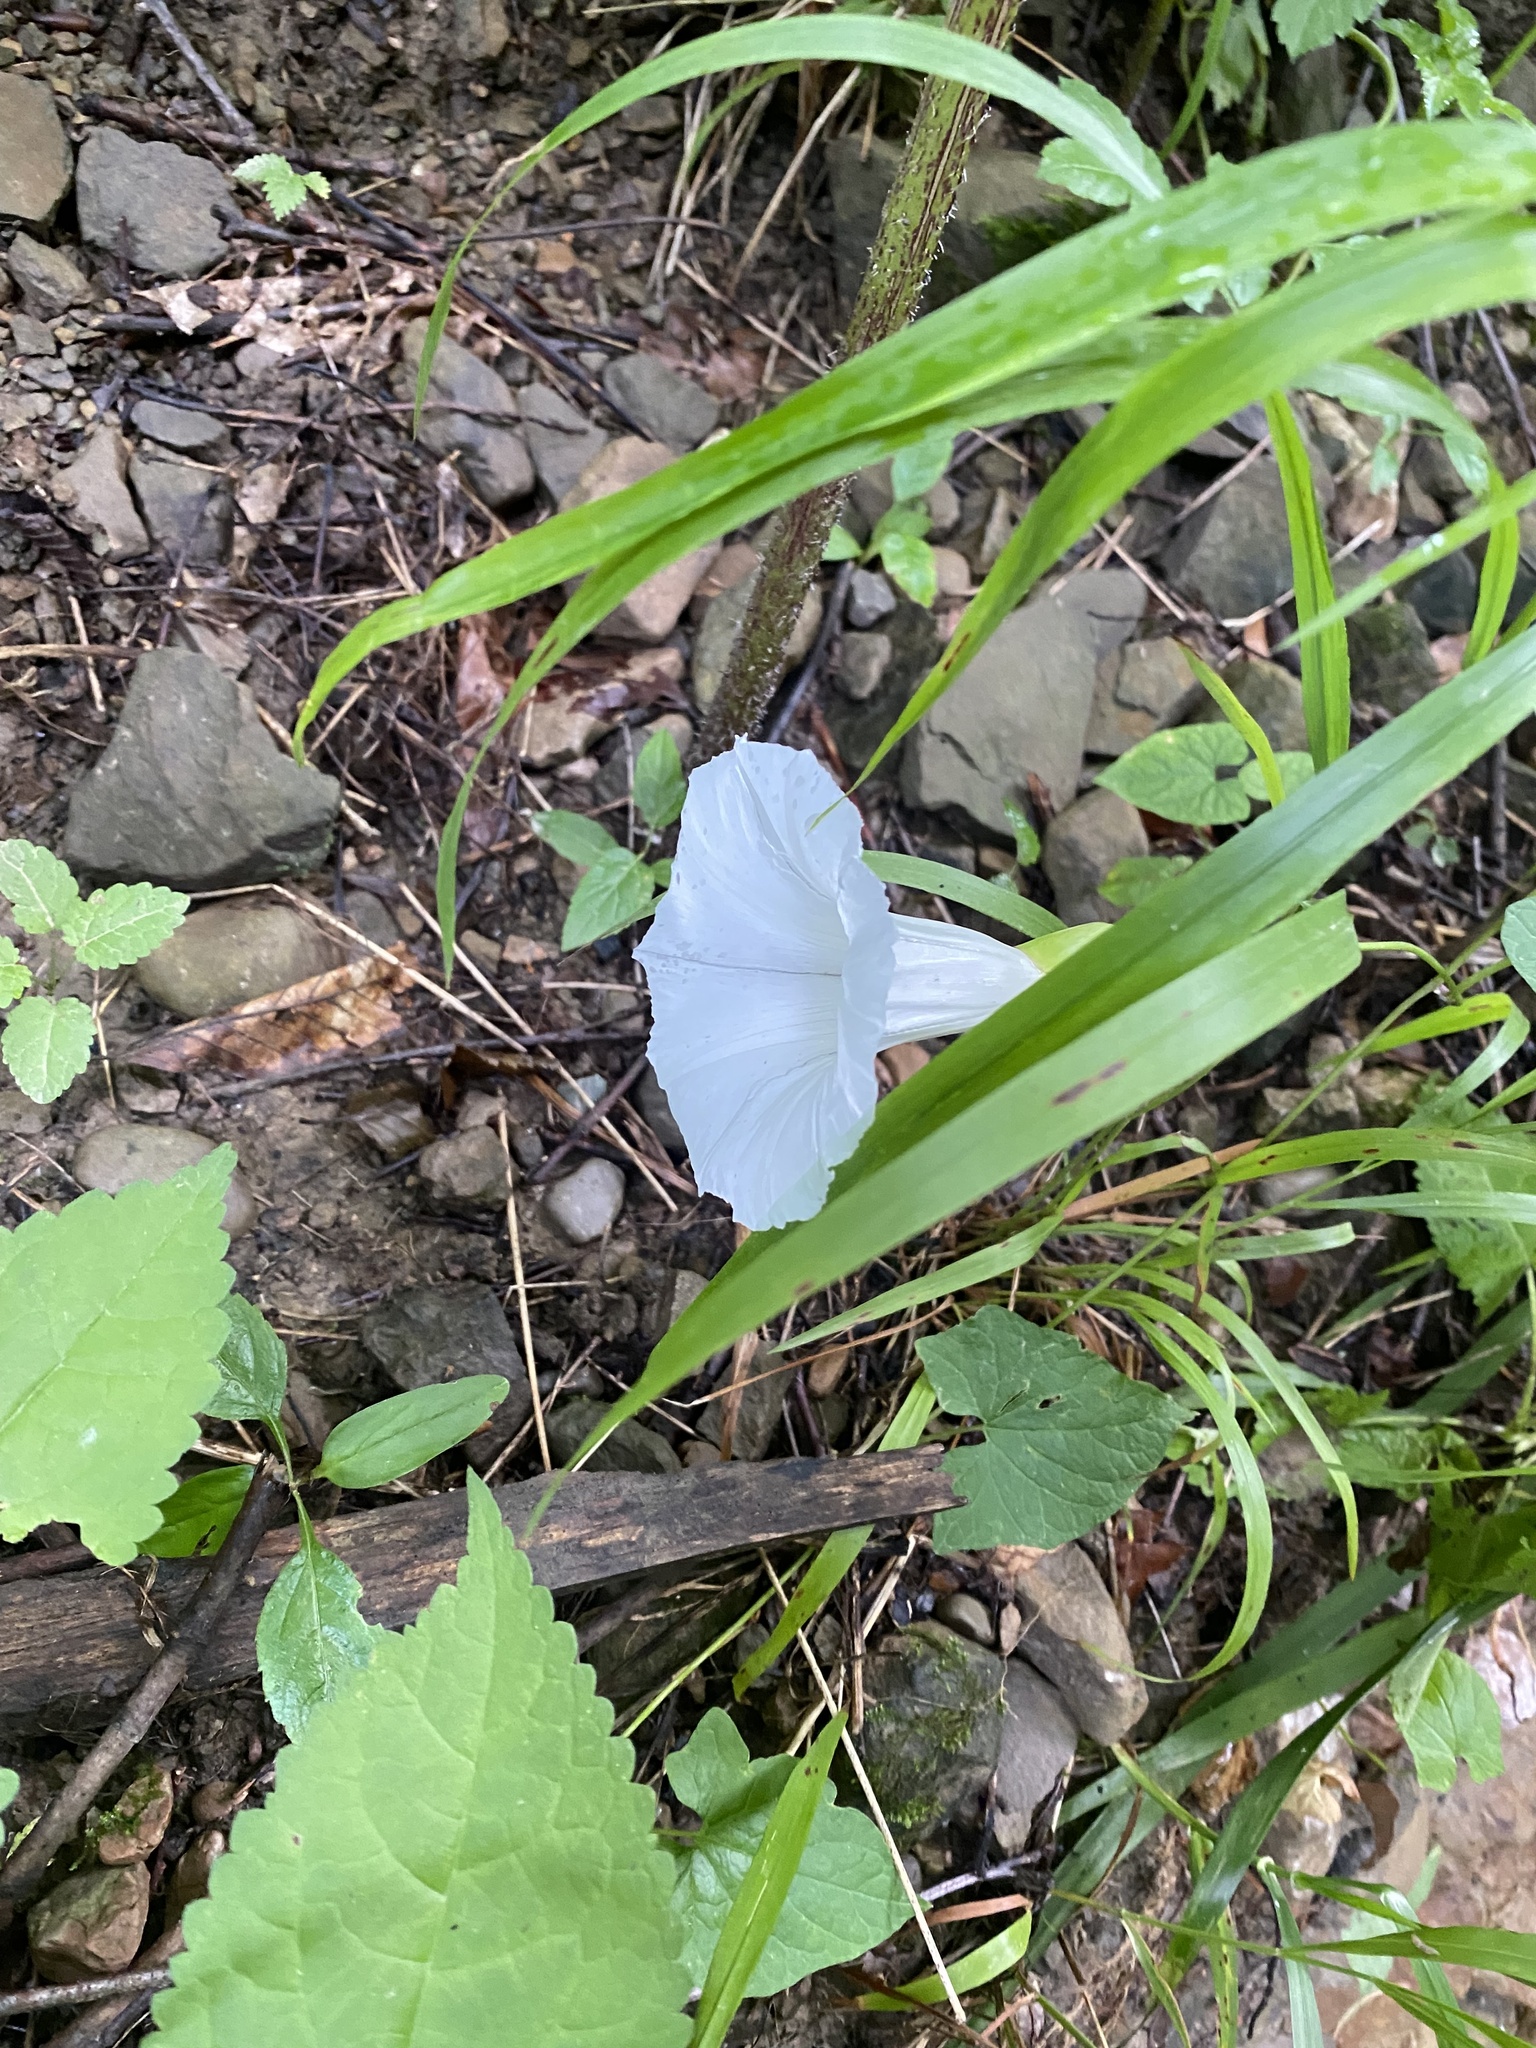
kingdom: Plantae
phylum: Tracheophyta
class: Magnoliopsida
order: Solanales
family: Convolvulaceae
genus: Calystegia
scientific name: Calystegia silvatica
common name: Large bindweed
